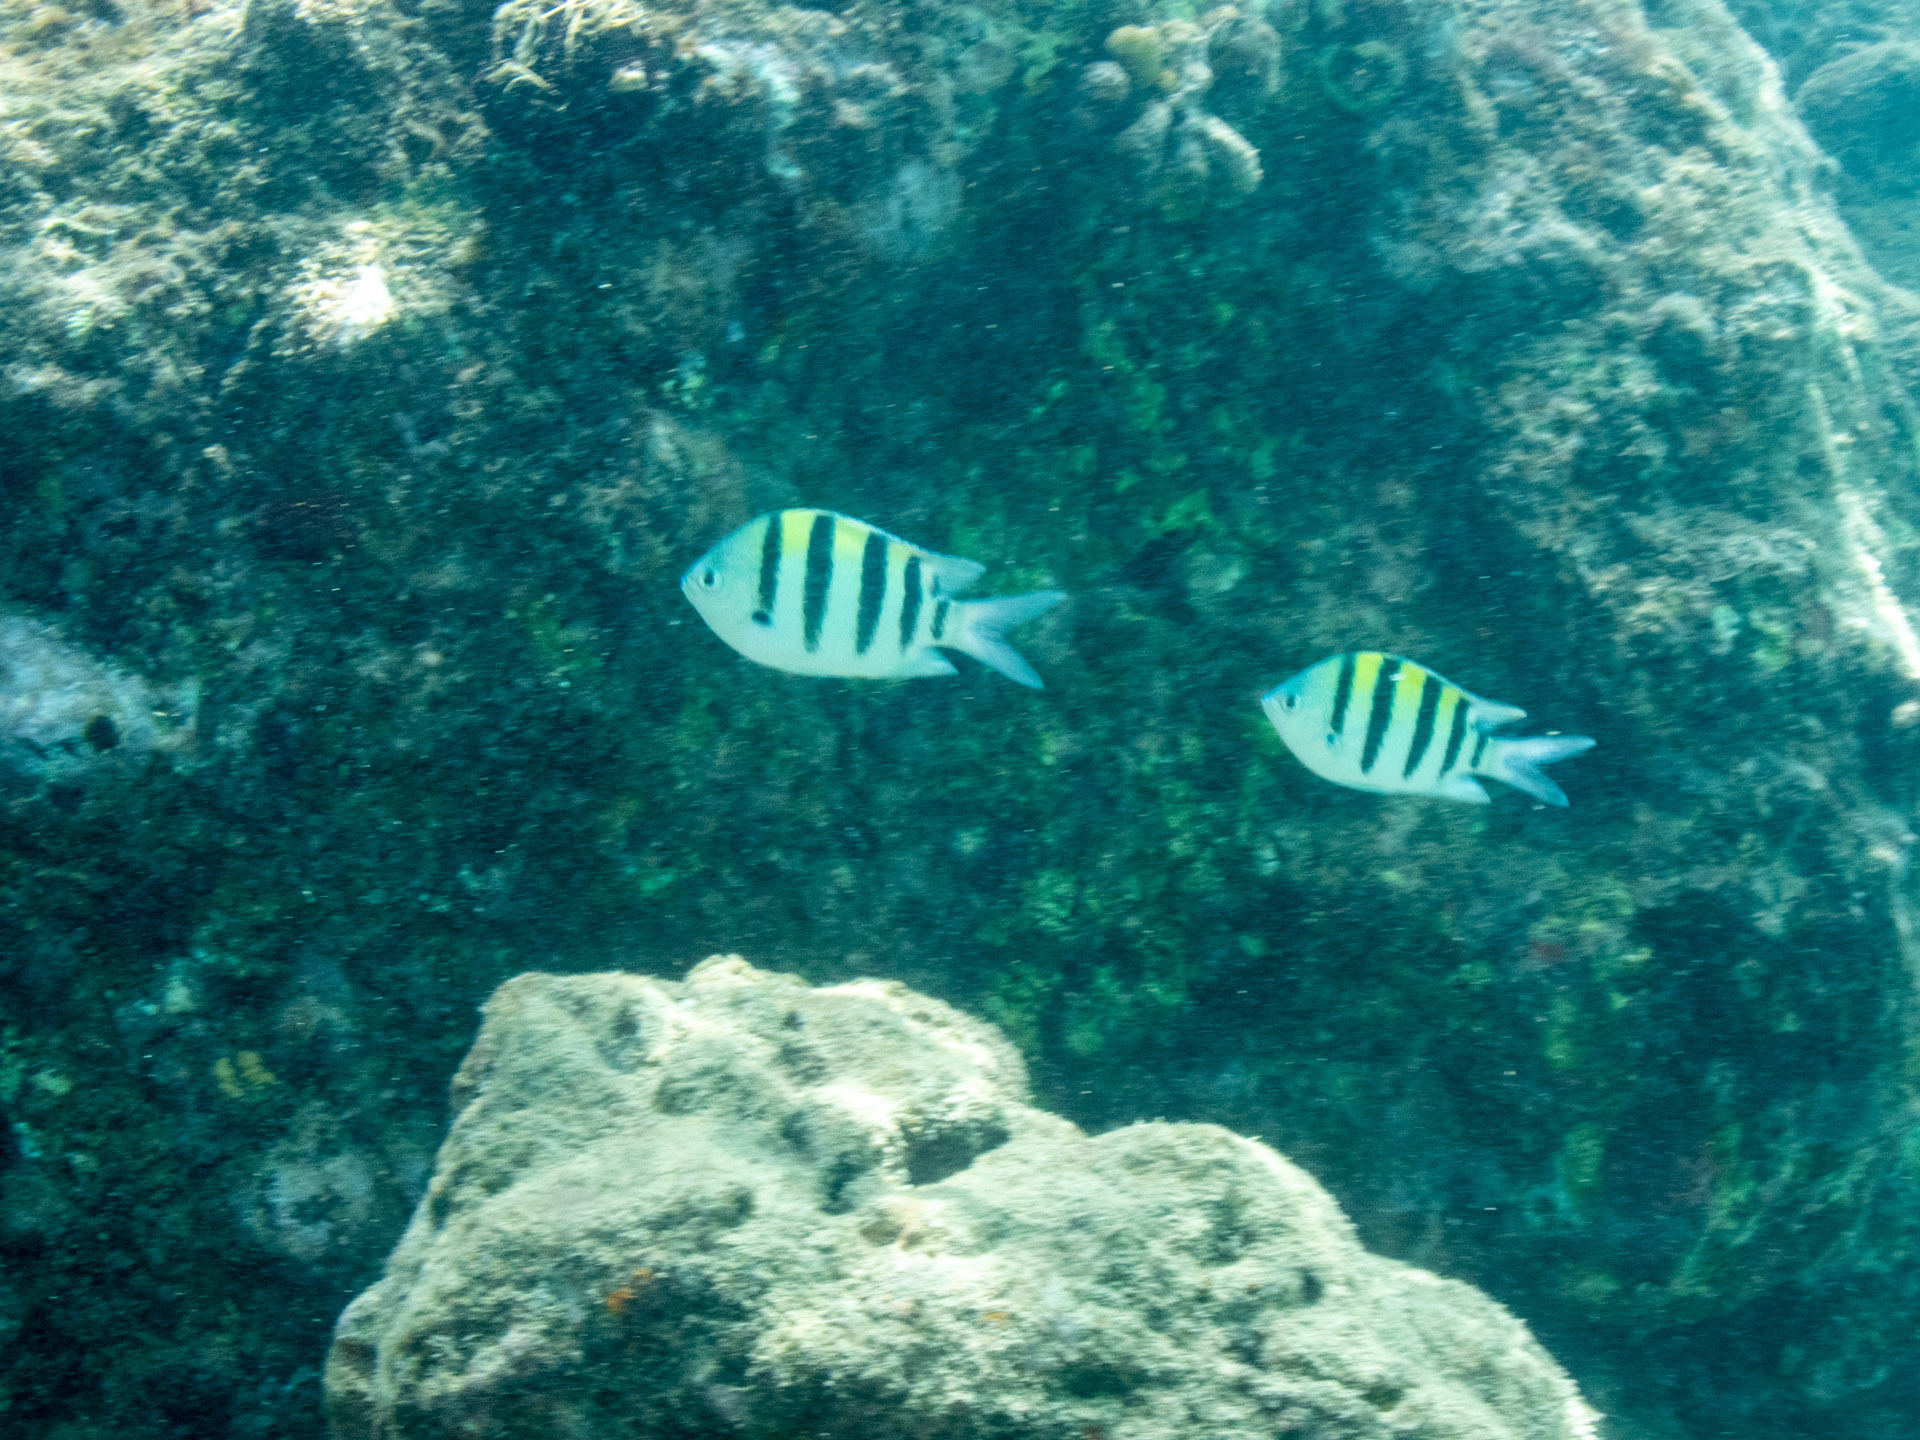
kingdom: Animalia
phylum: Chordata
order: Perciformes
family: Pomacentridae
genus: Abudefduf
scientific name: Abudefduf vaigiensis
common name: Indo-pacific sergeant
